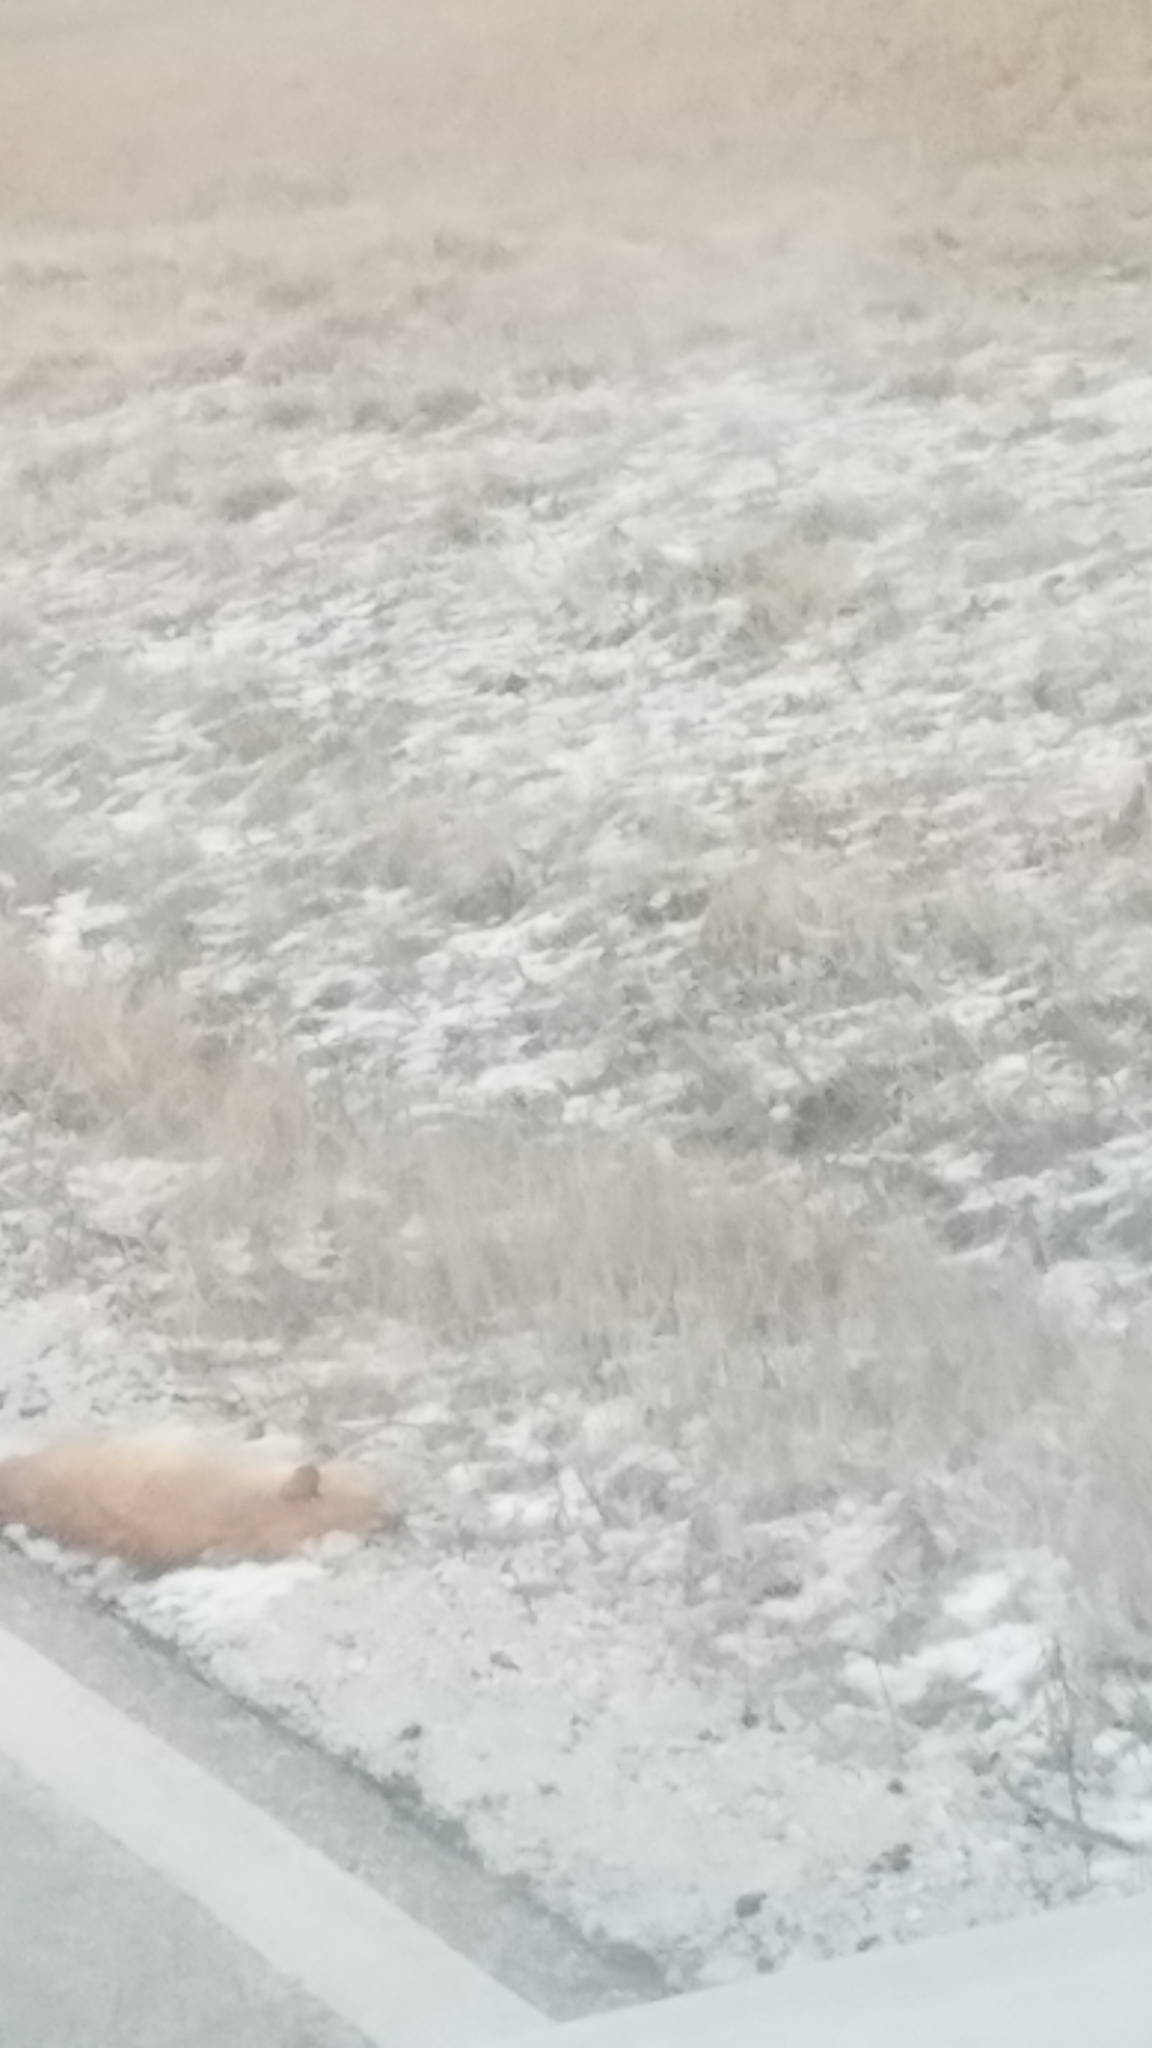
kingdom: Animalia
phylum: Chordata
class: Mammalia
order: Carnivora
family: Felidae
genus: Felis
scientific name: Felis catus
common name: Domestic cat
